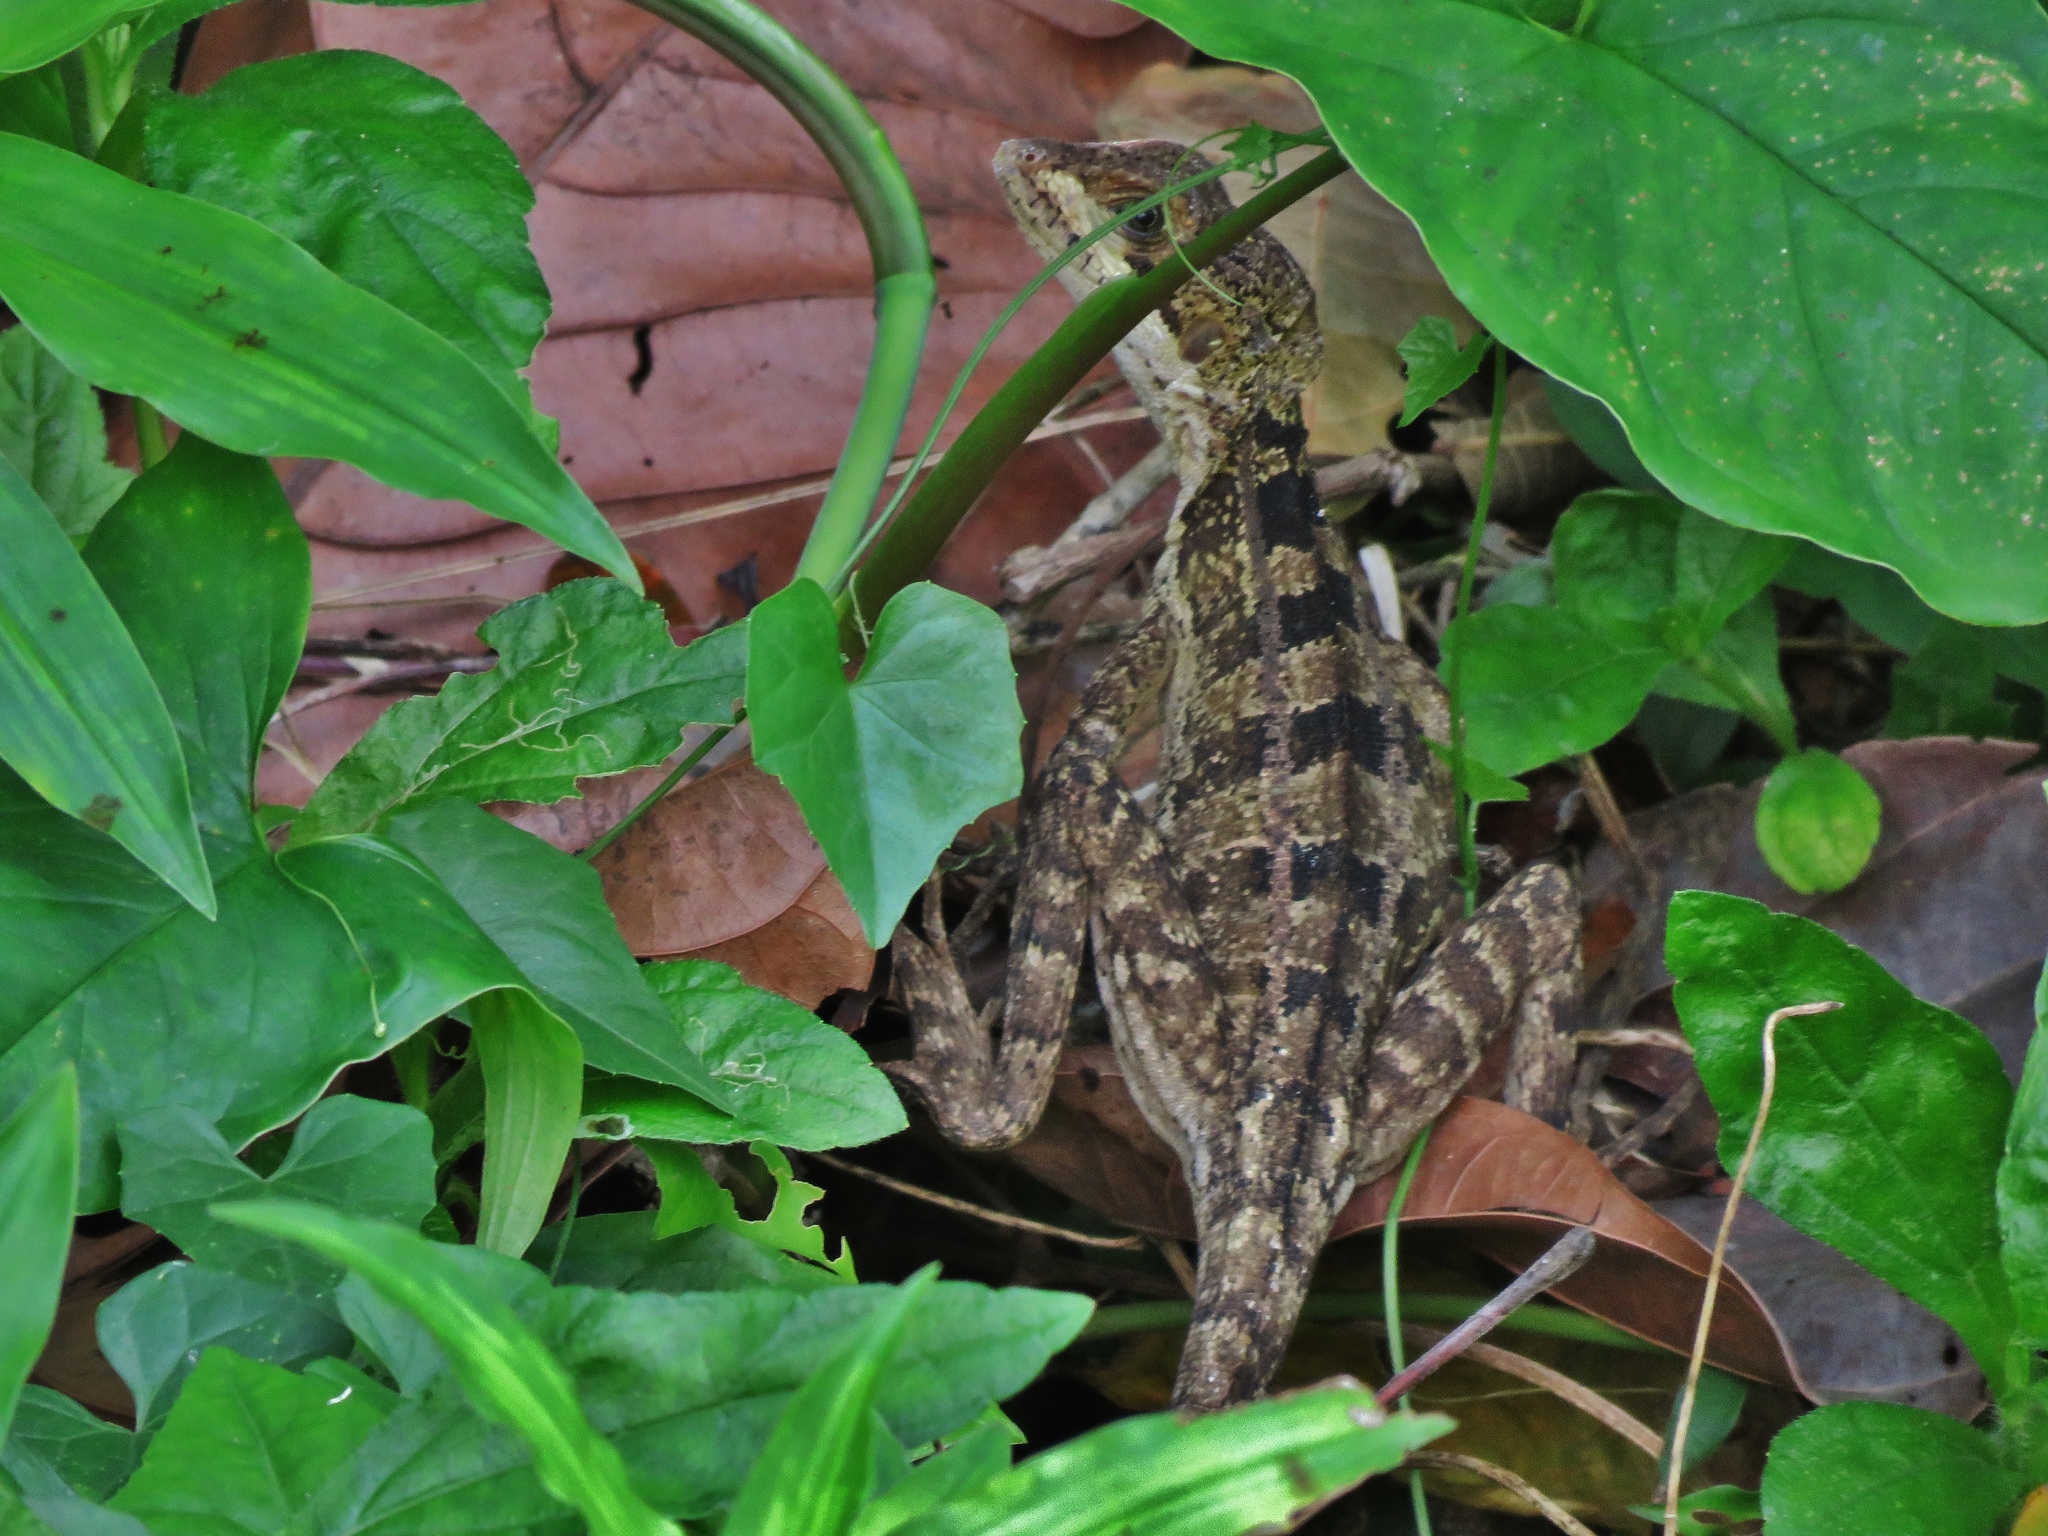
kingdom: Animalia
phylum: Chordata
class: Squamata
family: Corytophanidae
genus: Basiliscus
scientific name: Basiliscus vittatus
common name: Brown basilisk
